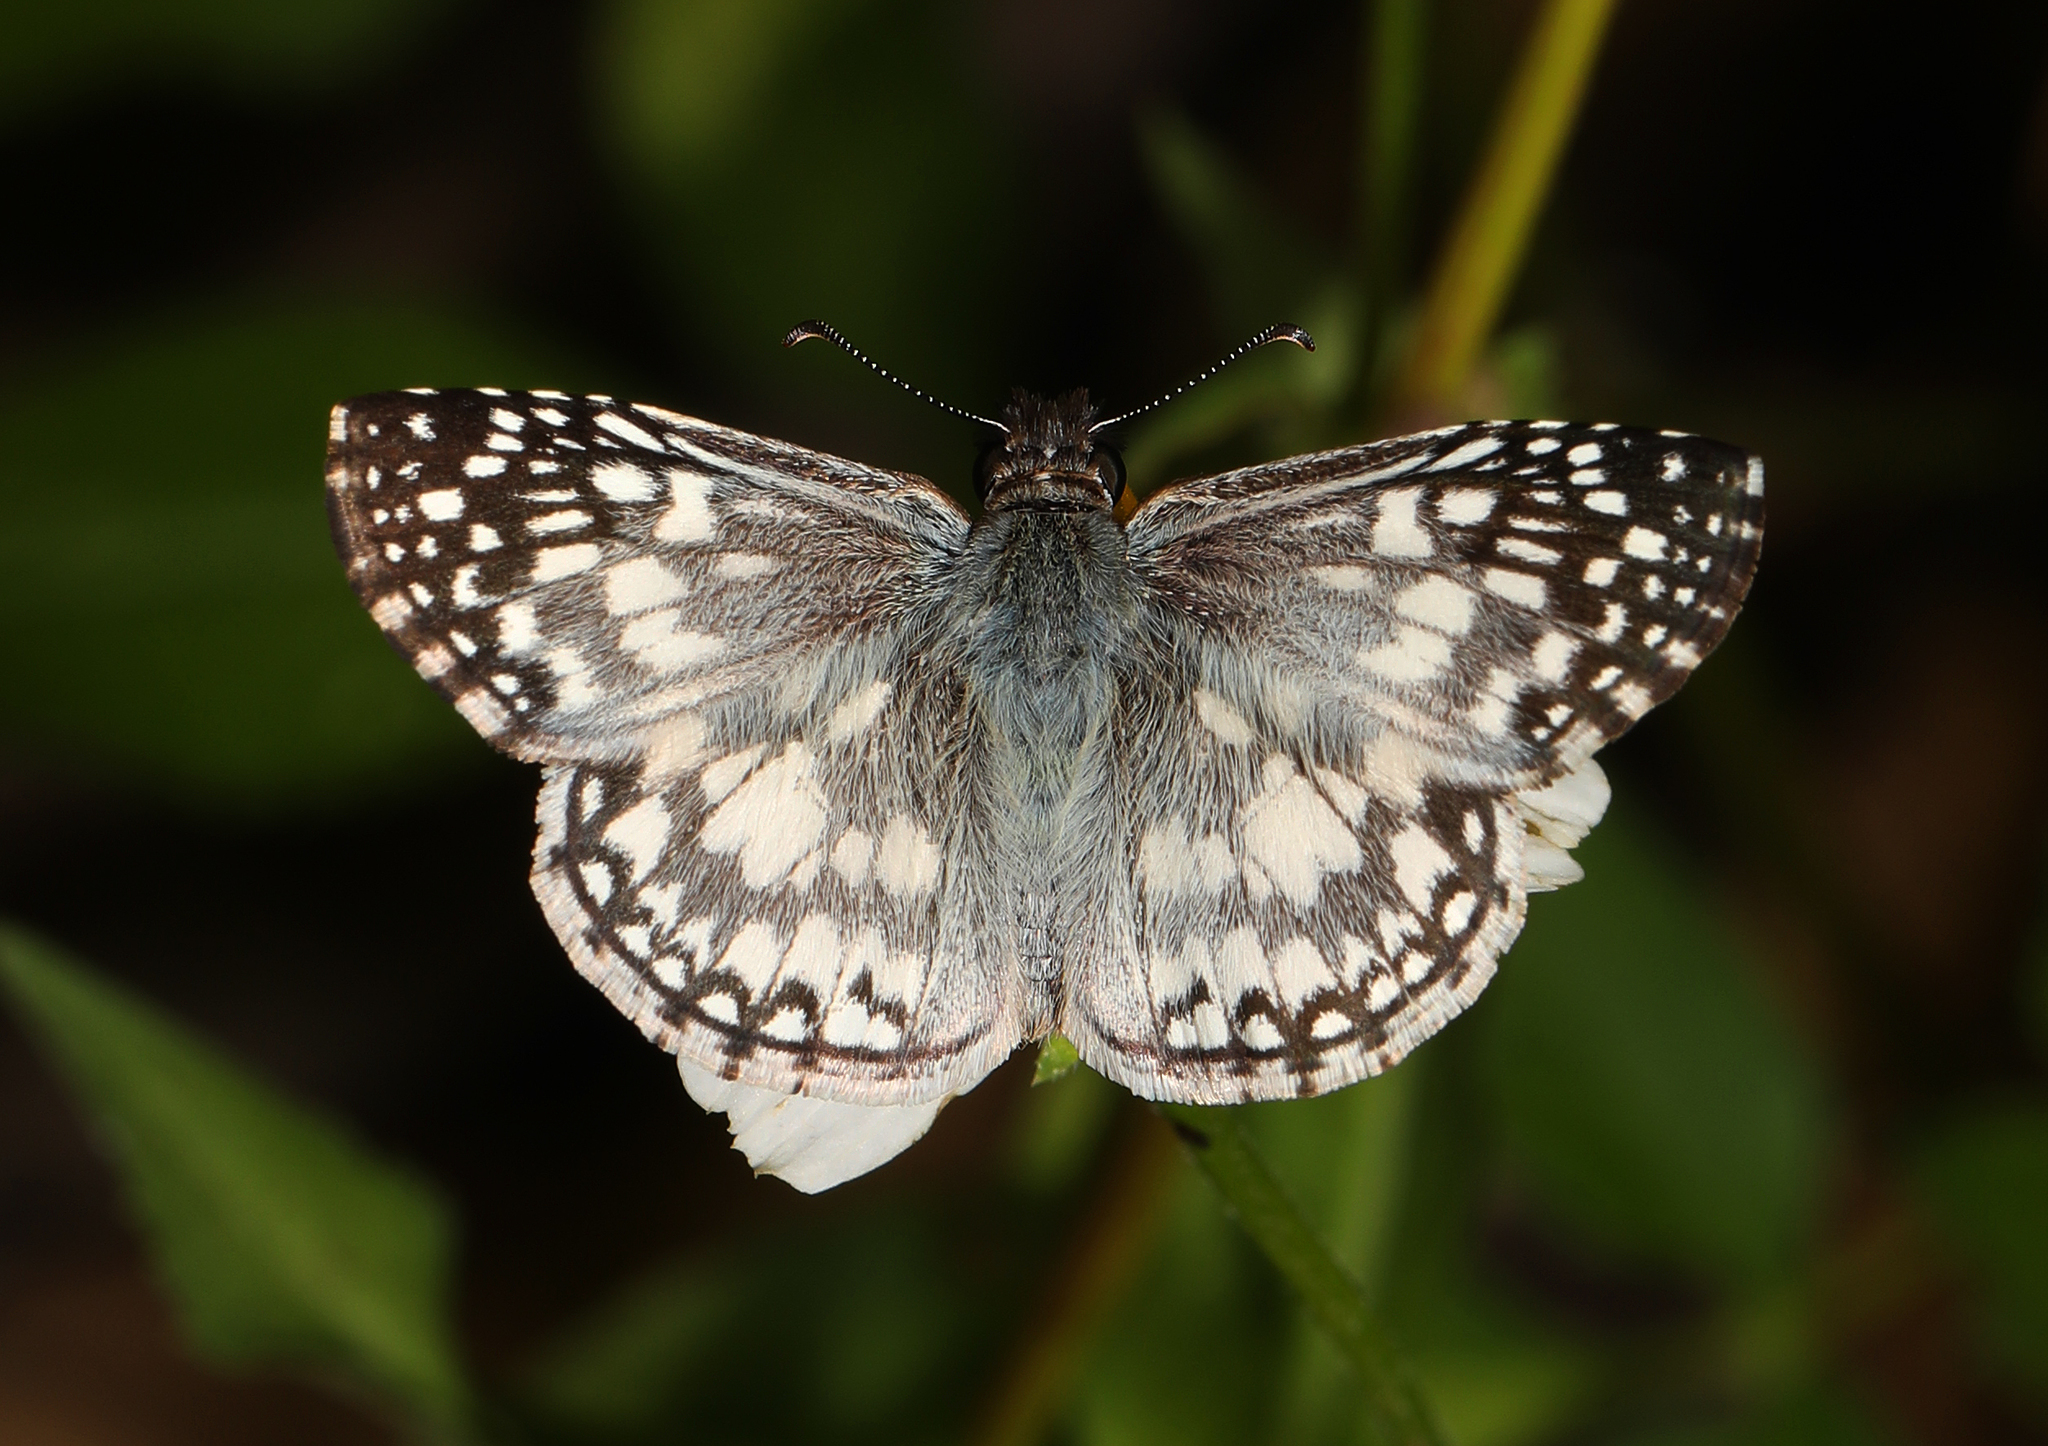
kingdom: Animalia
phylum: Arthropoda
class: Insecta
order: Lepidoptera
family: Hesperiidae
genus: Pyrgus
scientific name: Pyrgus oileus
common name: Tropical checkered-skipper
